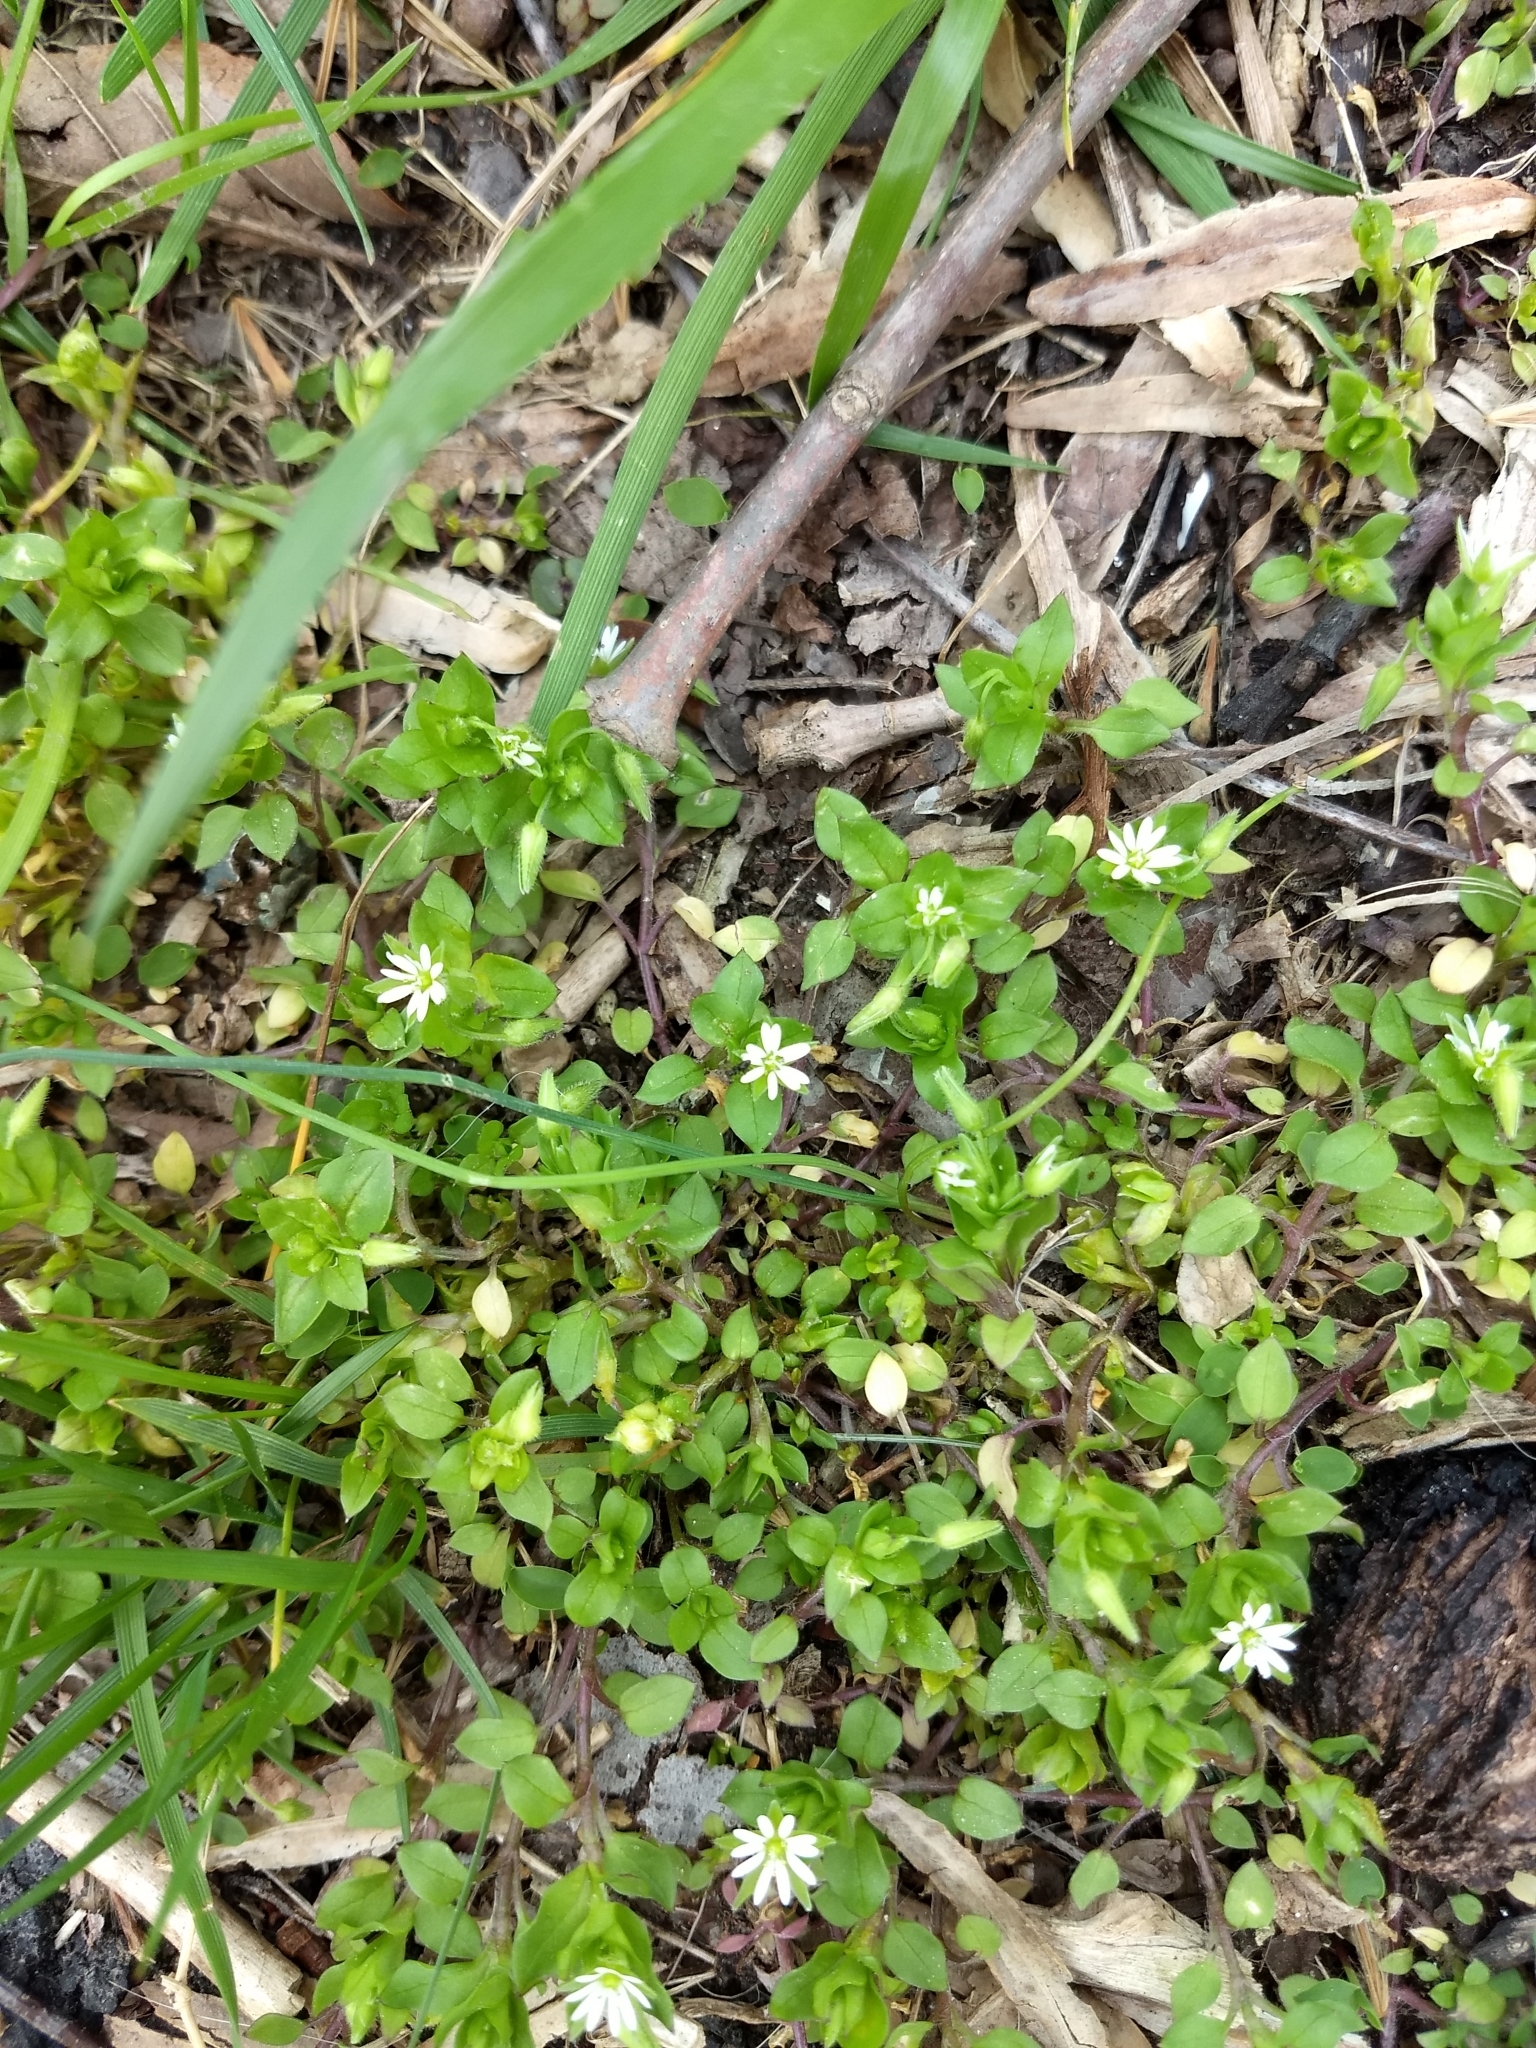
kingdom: Plantae
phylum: Tracheophyta
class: Magnoliopsida
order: Caryophyllales
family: Caryophyllaceae
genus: Stellaria
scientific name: Stellaria media
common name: Common chickweed
